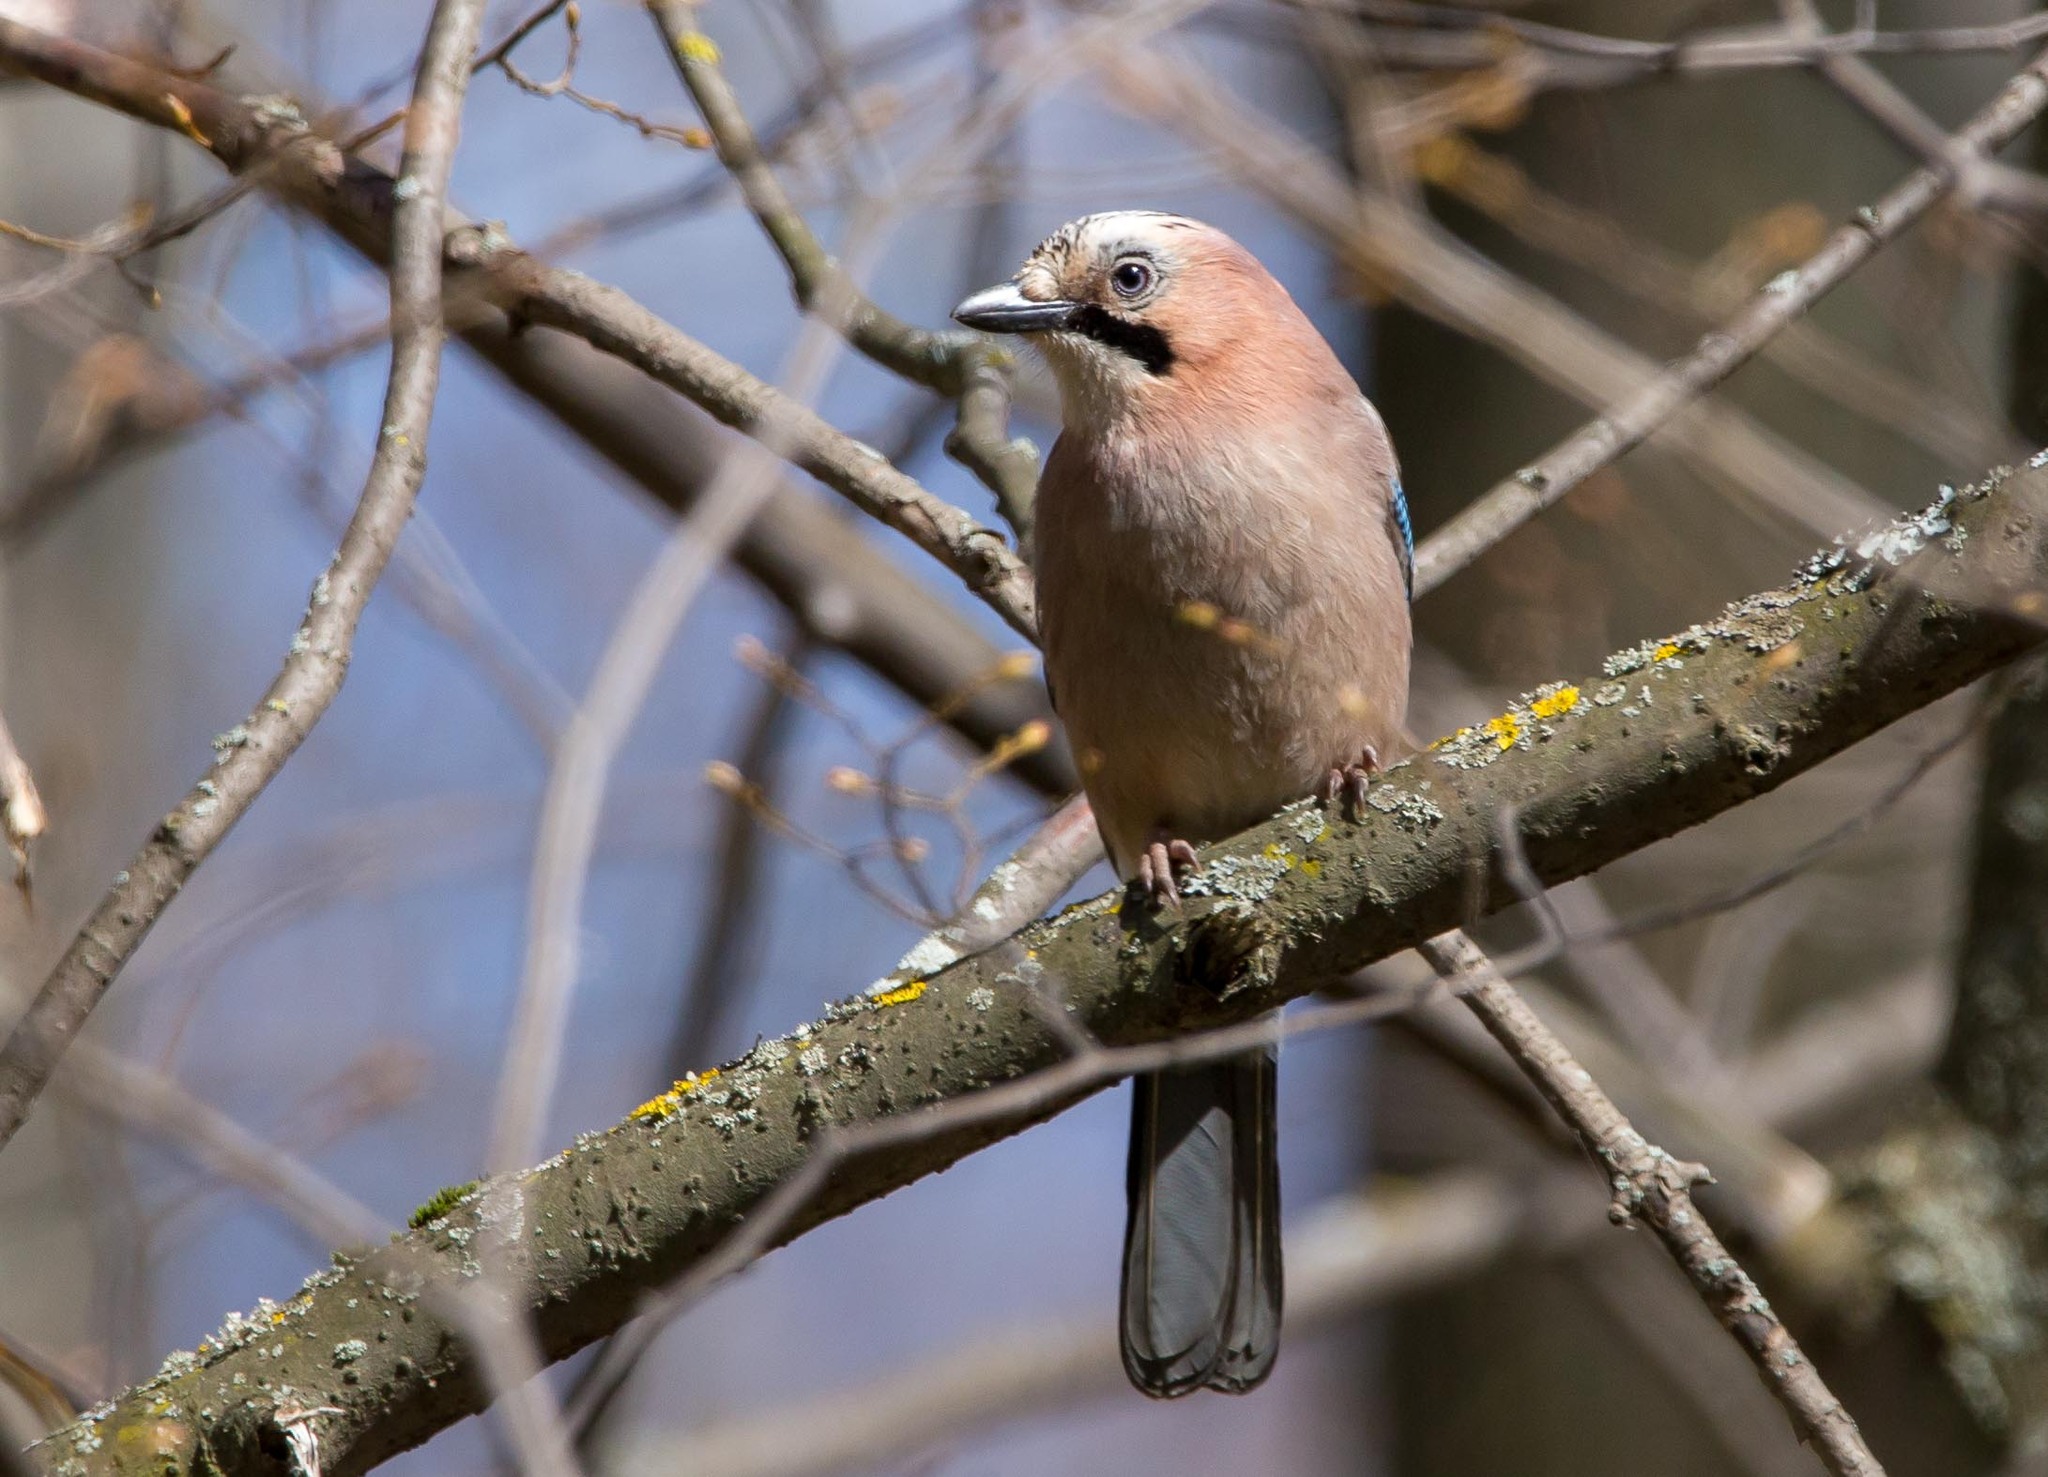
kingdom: Animalia
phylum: Chordata
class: Aves
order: Passeriformes
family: Corvidae
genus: Garrulus
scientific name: Garrulus glandarius
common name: Eurasian jay
